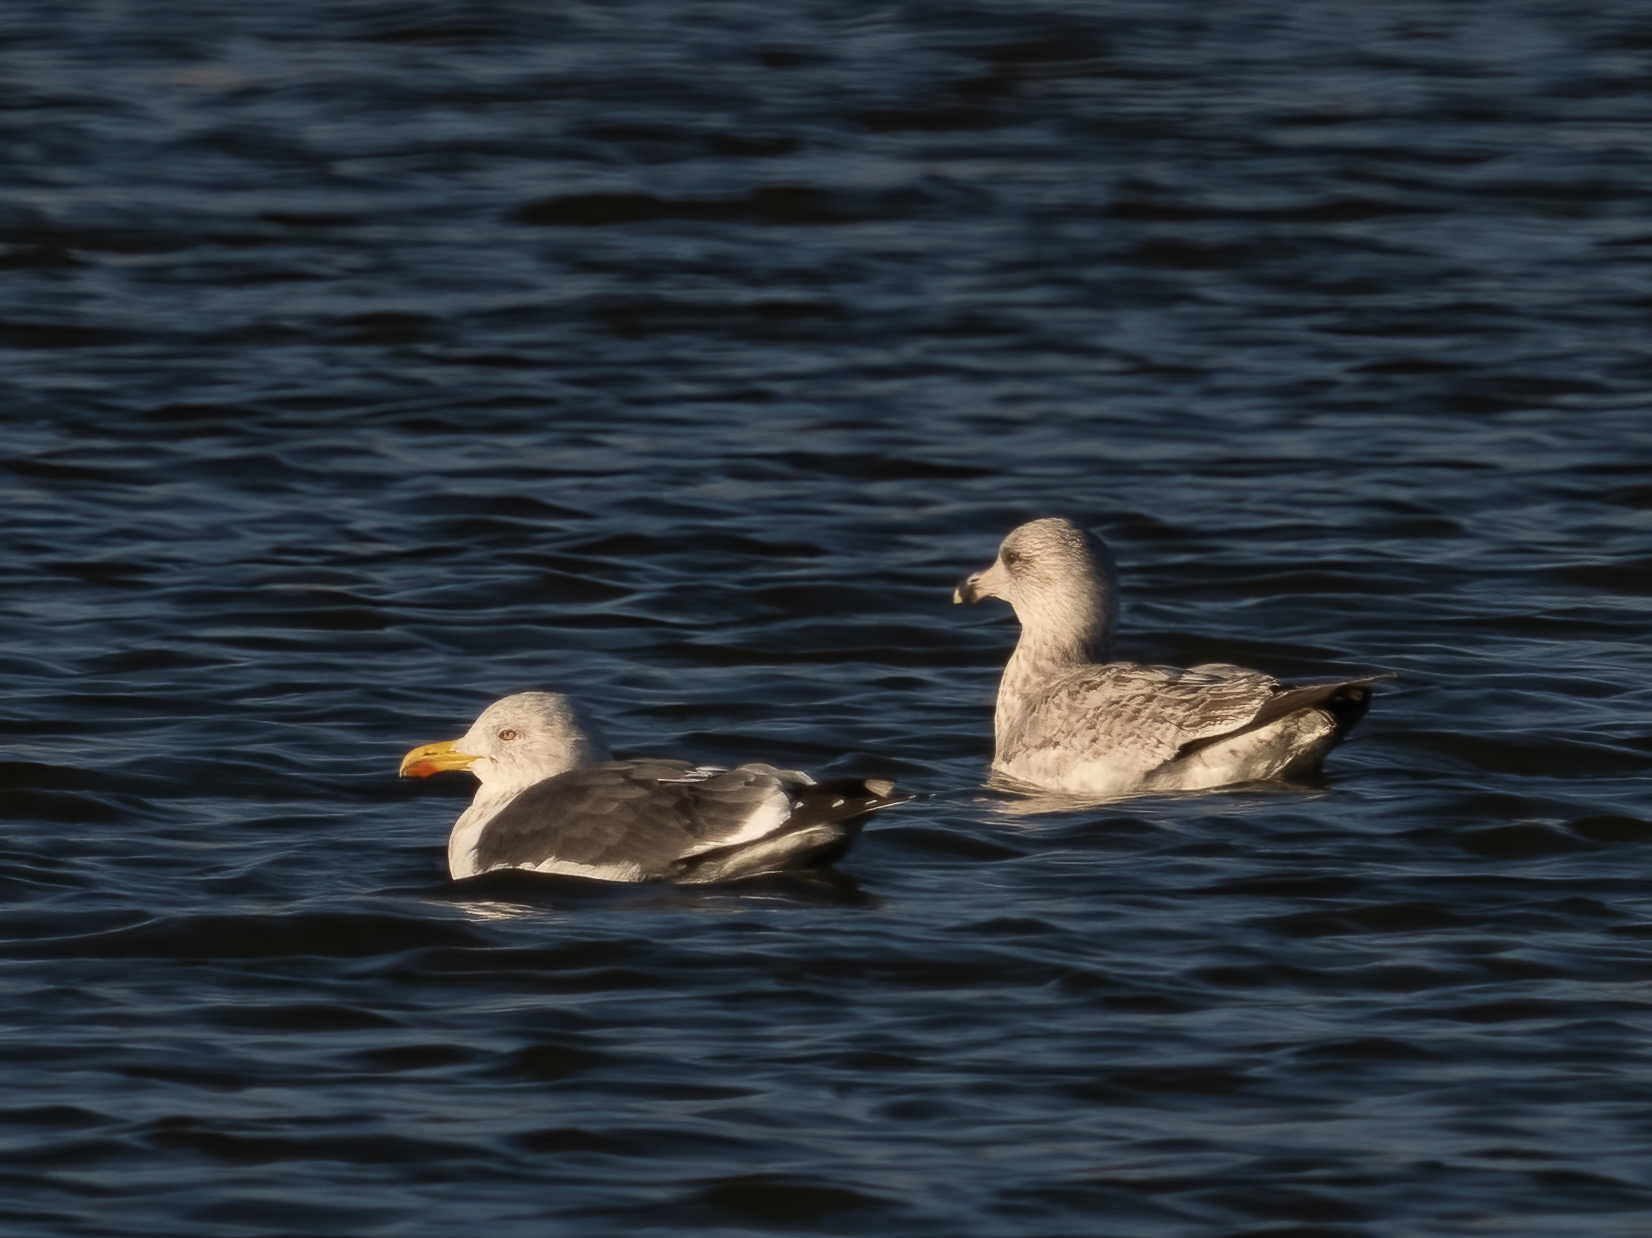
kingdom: Animalia
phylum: Chordata
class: Aves
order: Charadriiformes
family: Laridae
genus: Larus
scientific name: Larus fuscus
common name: Lesser black-backed gull
